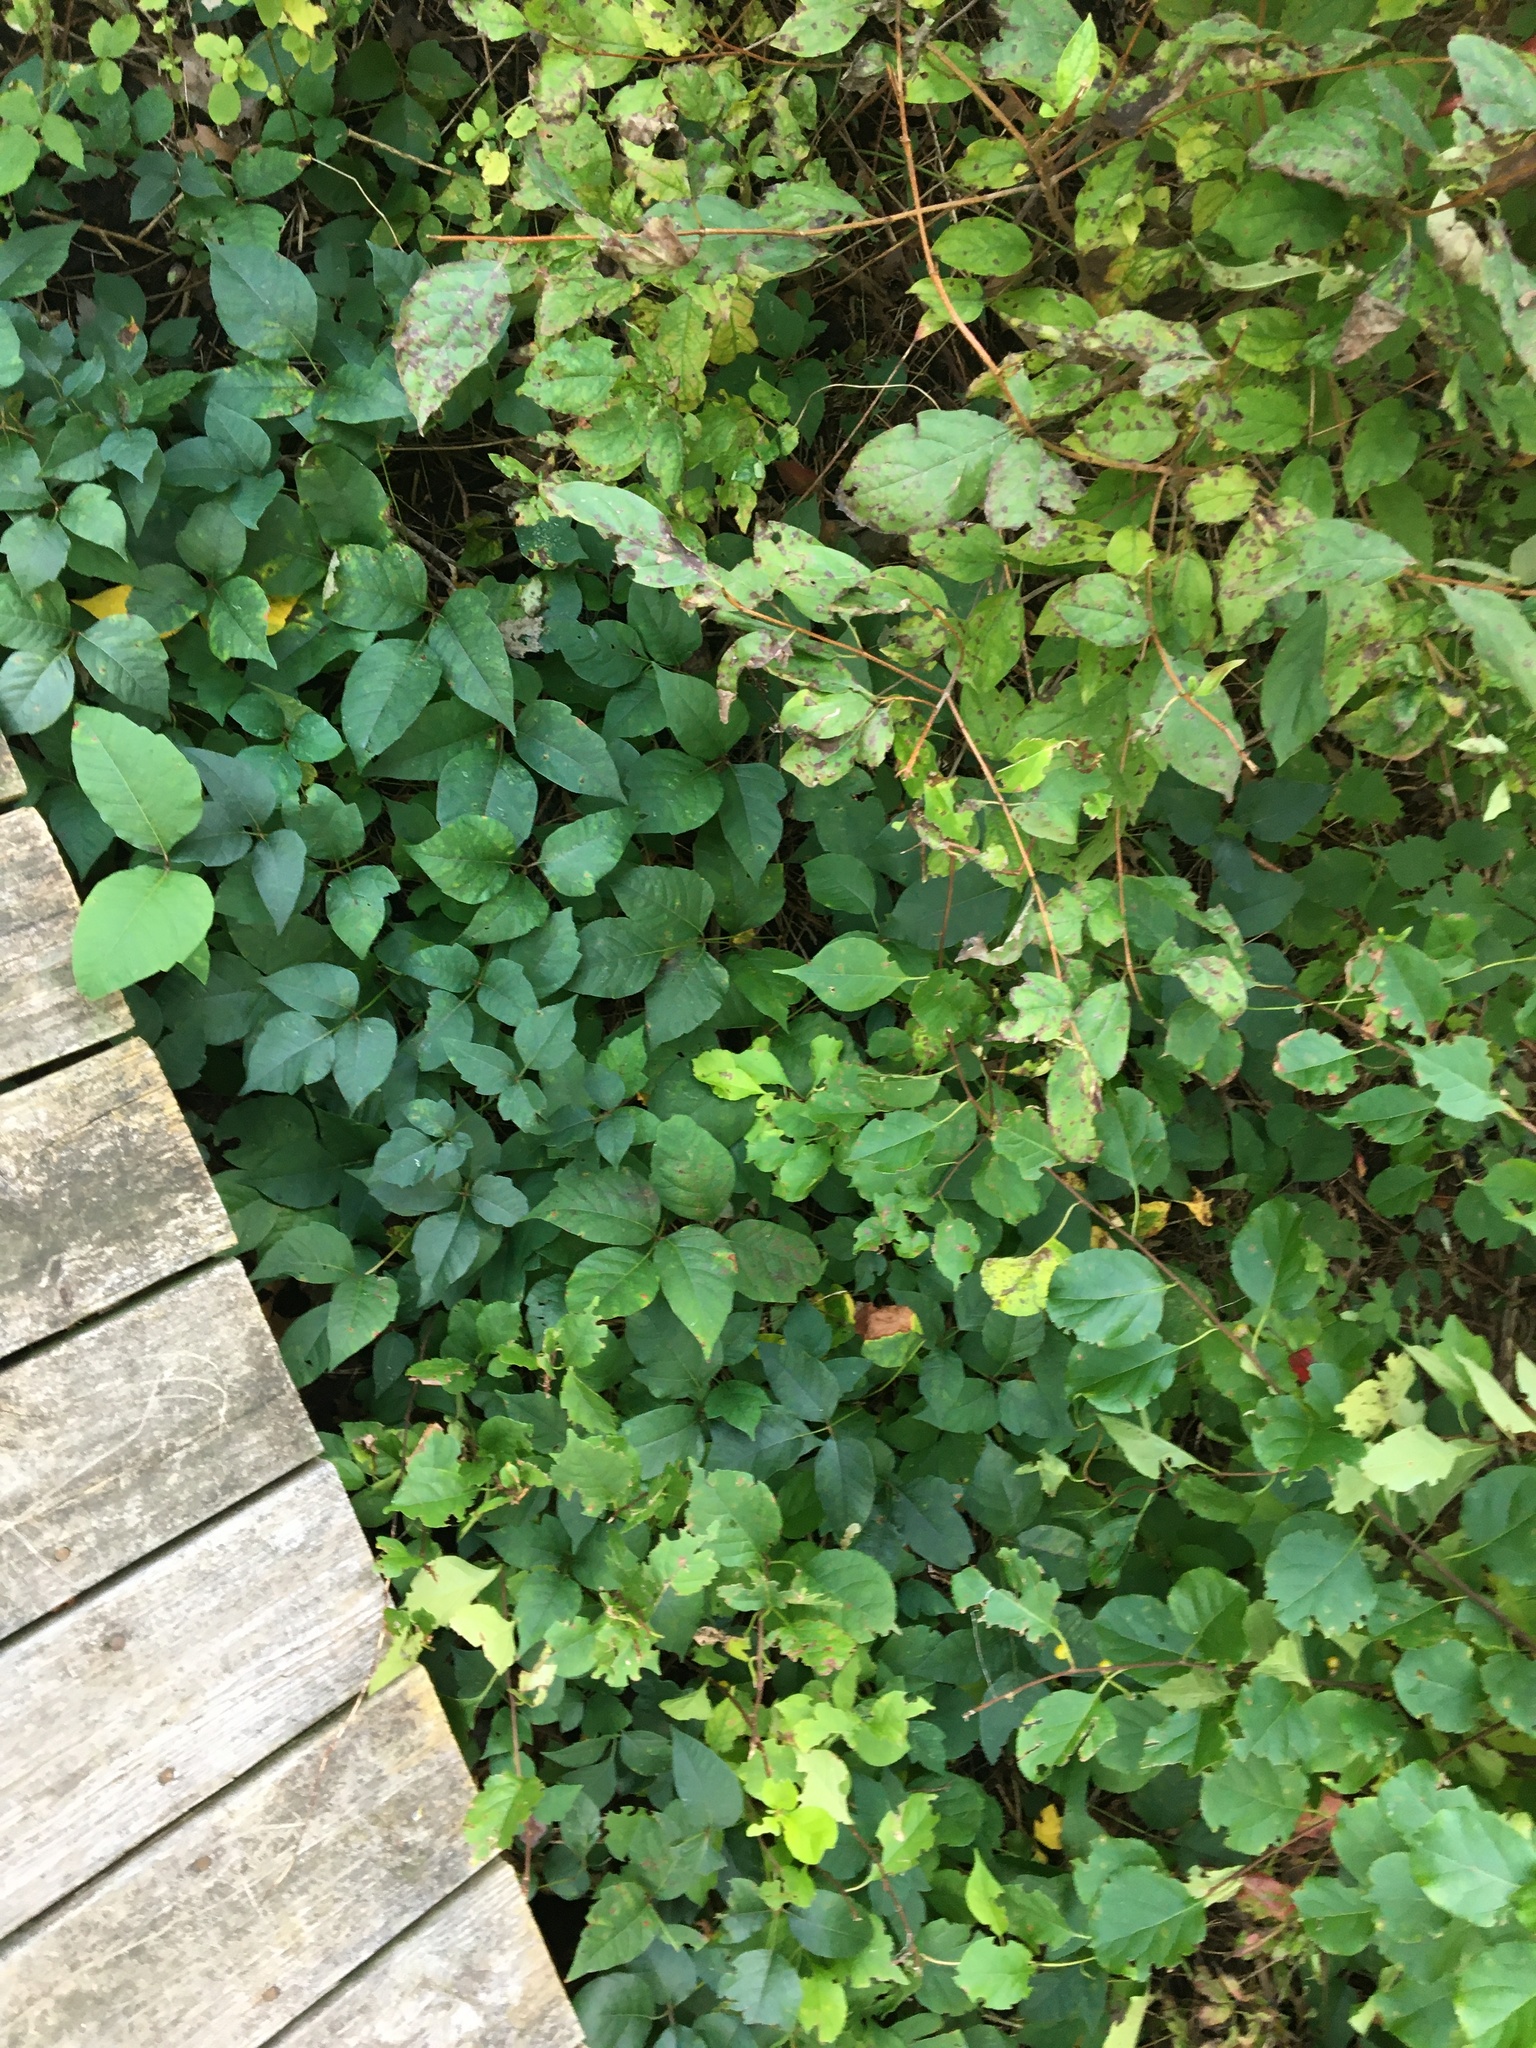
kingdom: Plantae
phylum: Tracheophyta
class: Magnoliopsida
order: Sapindales
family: Anacardiaceae
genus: Toxicodendron
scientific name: Toxicodendron radicans
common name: Poison ivy
